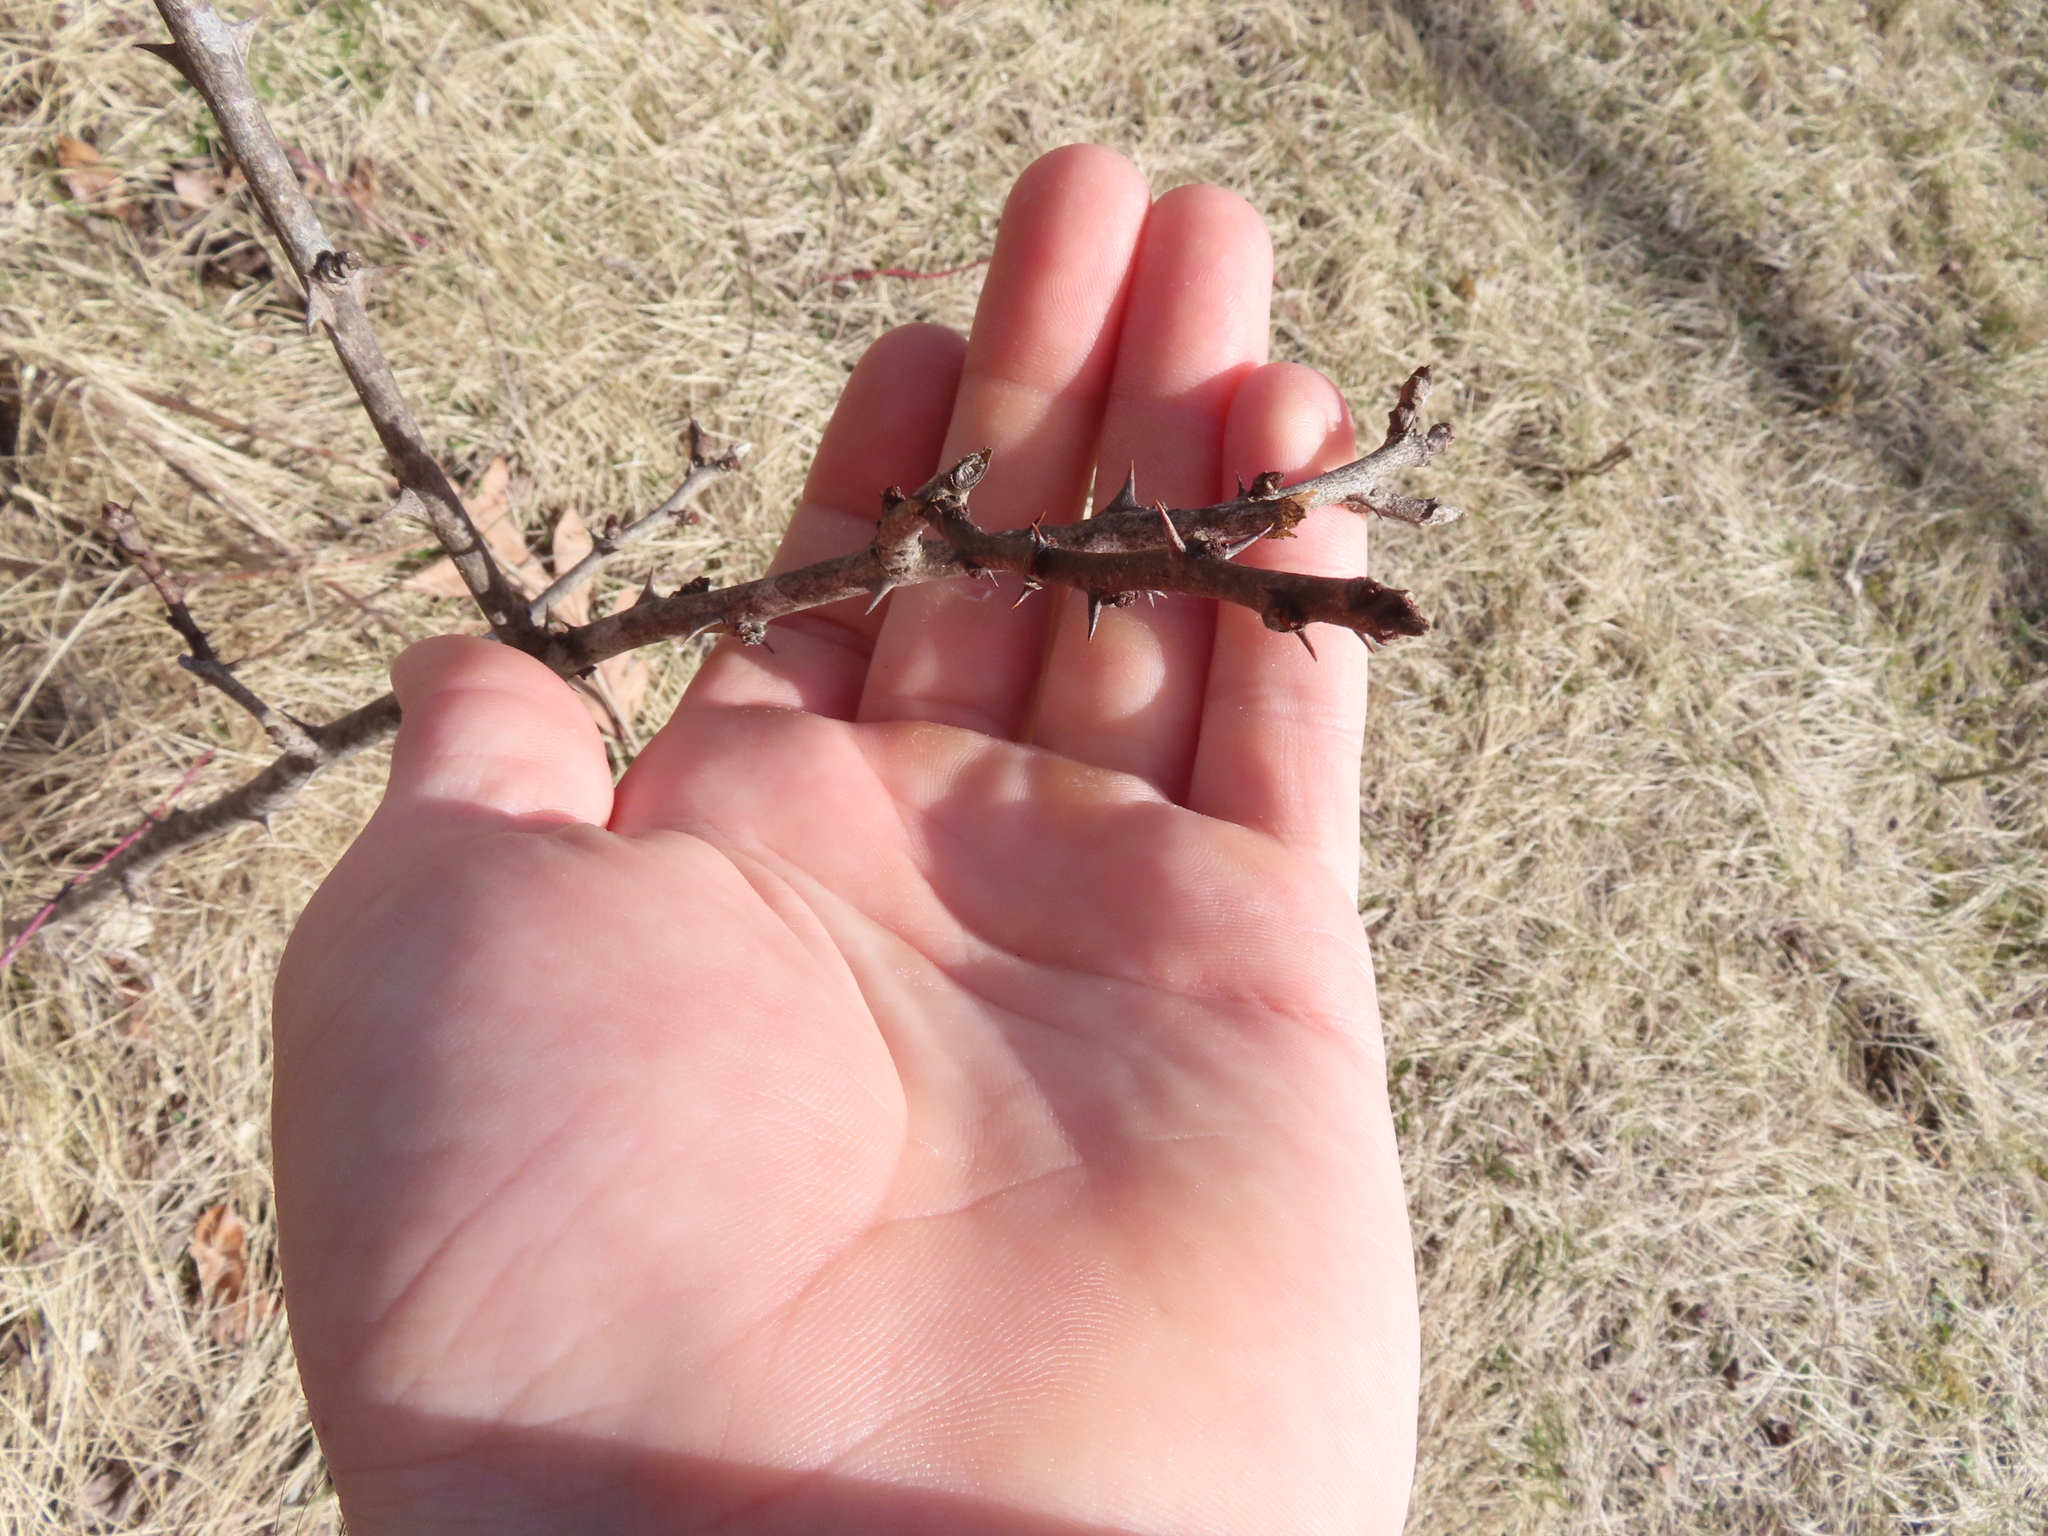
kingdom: Plantae
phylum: Tracheophyta
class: Magnoliopsida
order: Sapindales
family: Rutaceae
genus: Zanthoxylum
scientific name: Zanthoxylum americanum
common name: Northern prickly-ash
